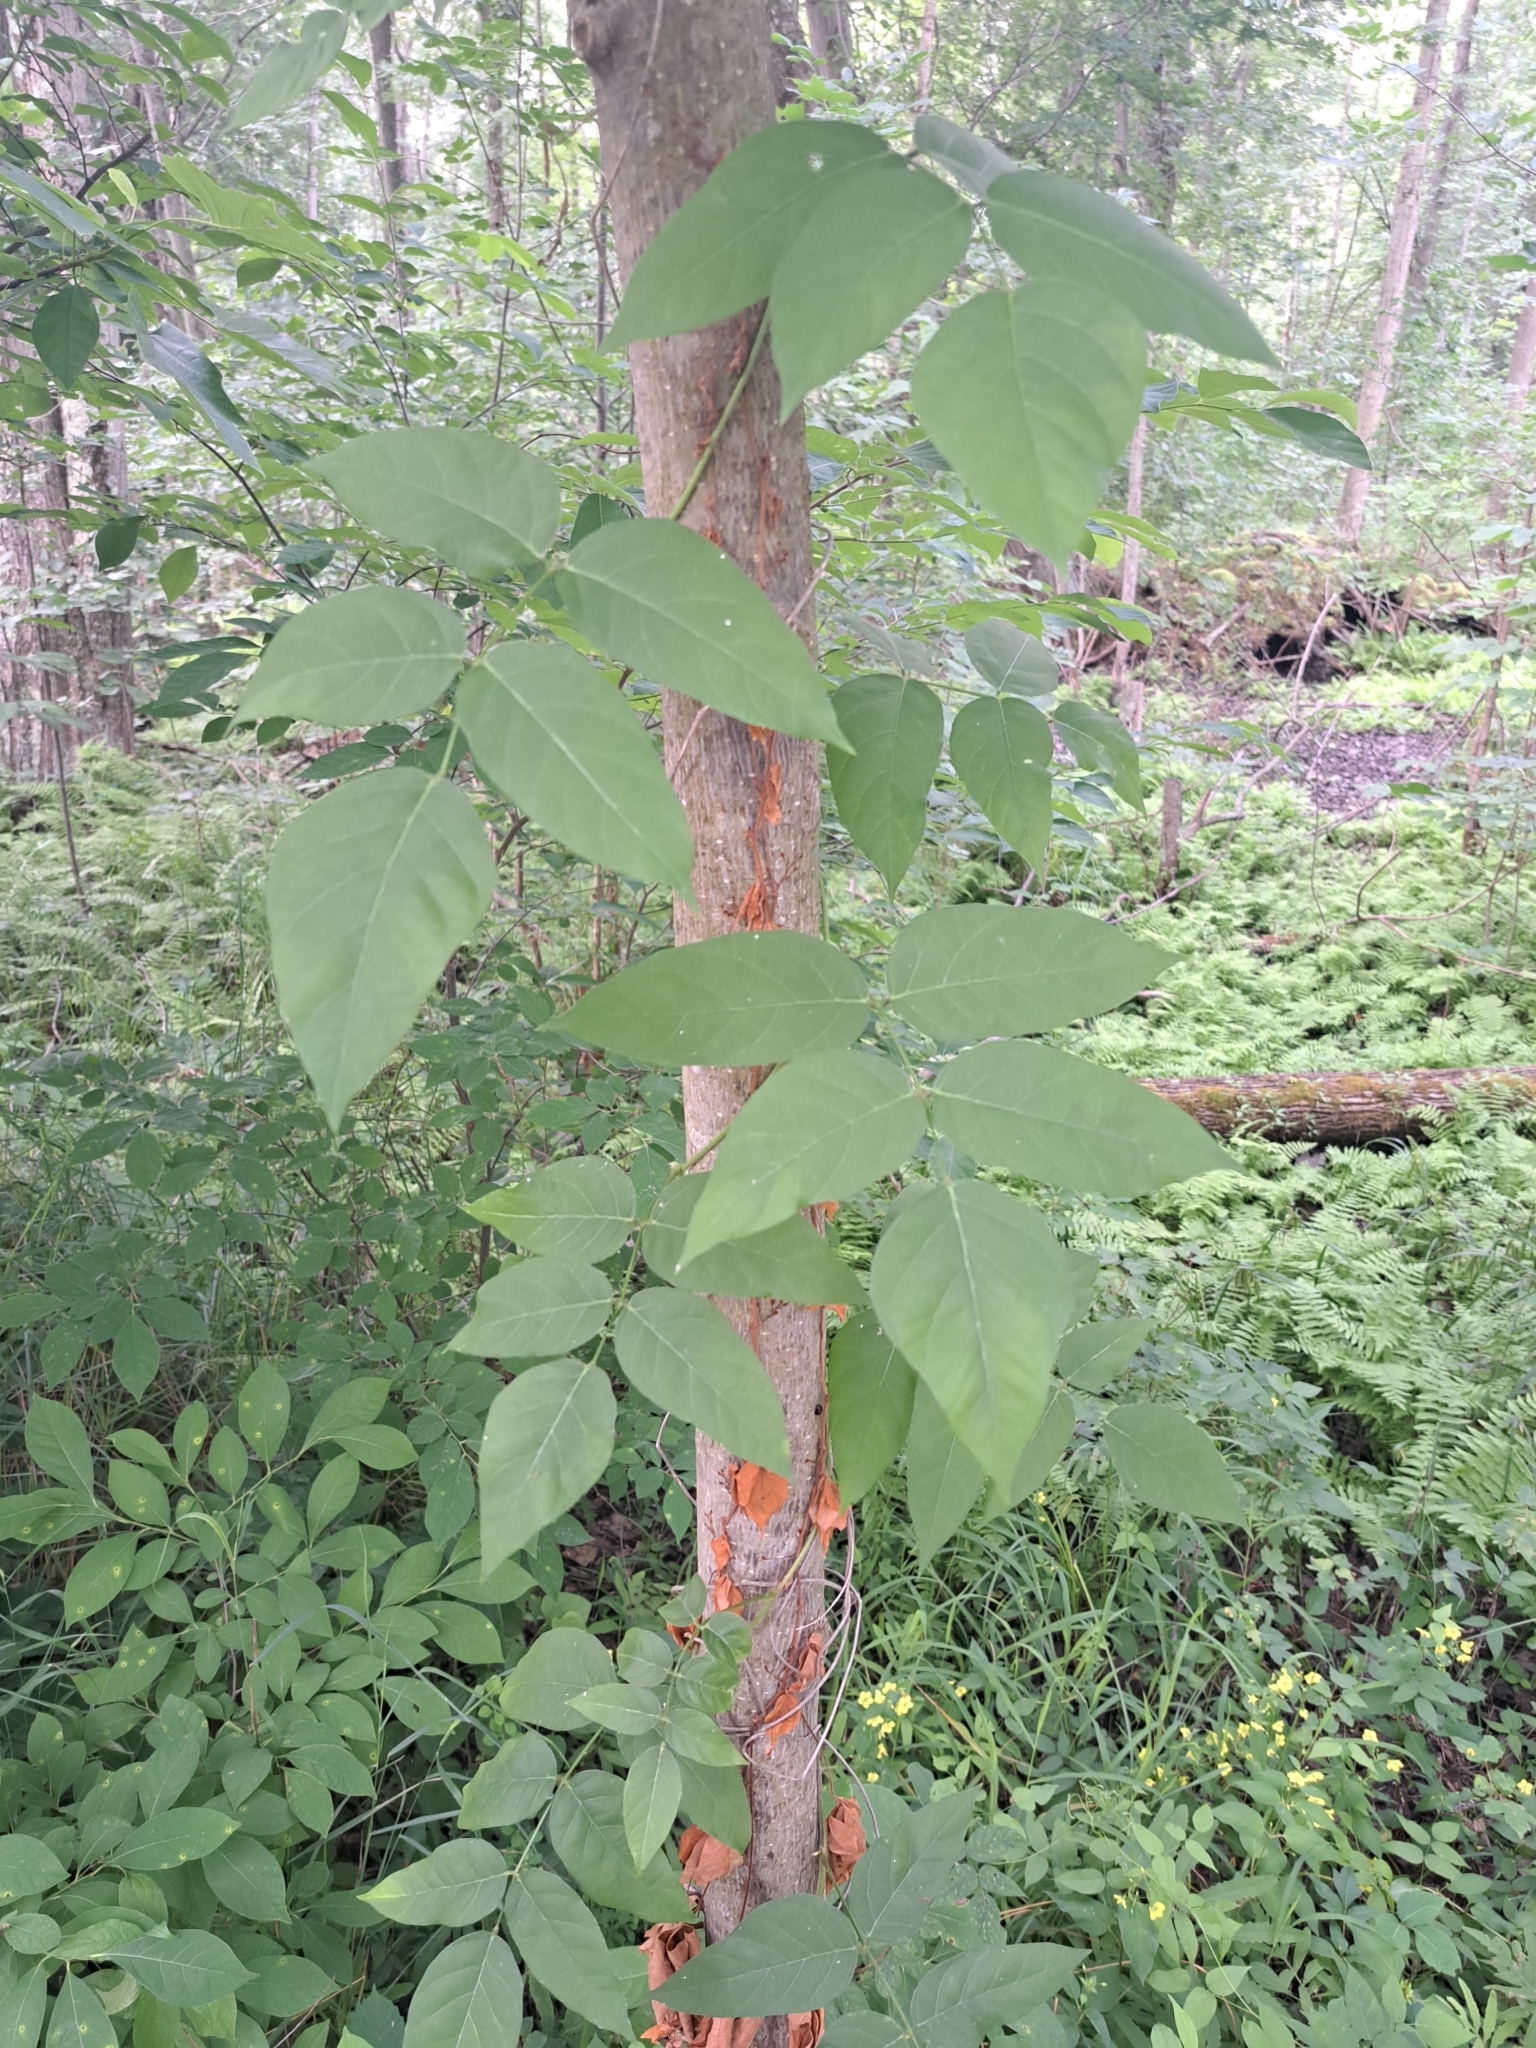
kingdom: Plantae
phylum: Tracheophyta
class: Magnoliopsida
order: Fabales
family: Fabaceae
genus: Apios
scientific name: Apios americana
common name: American potato-bean
